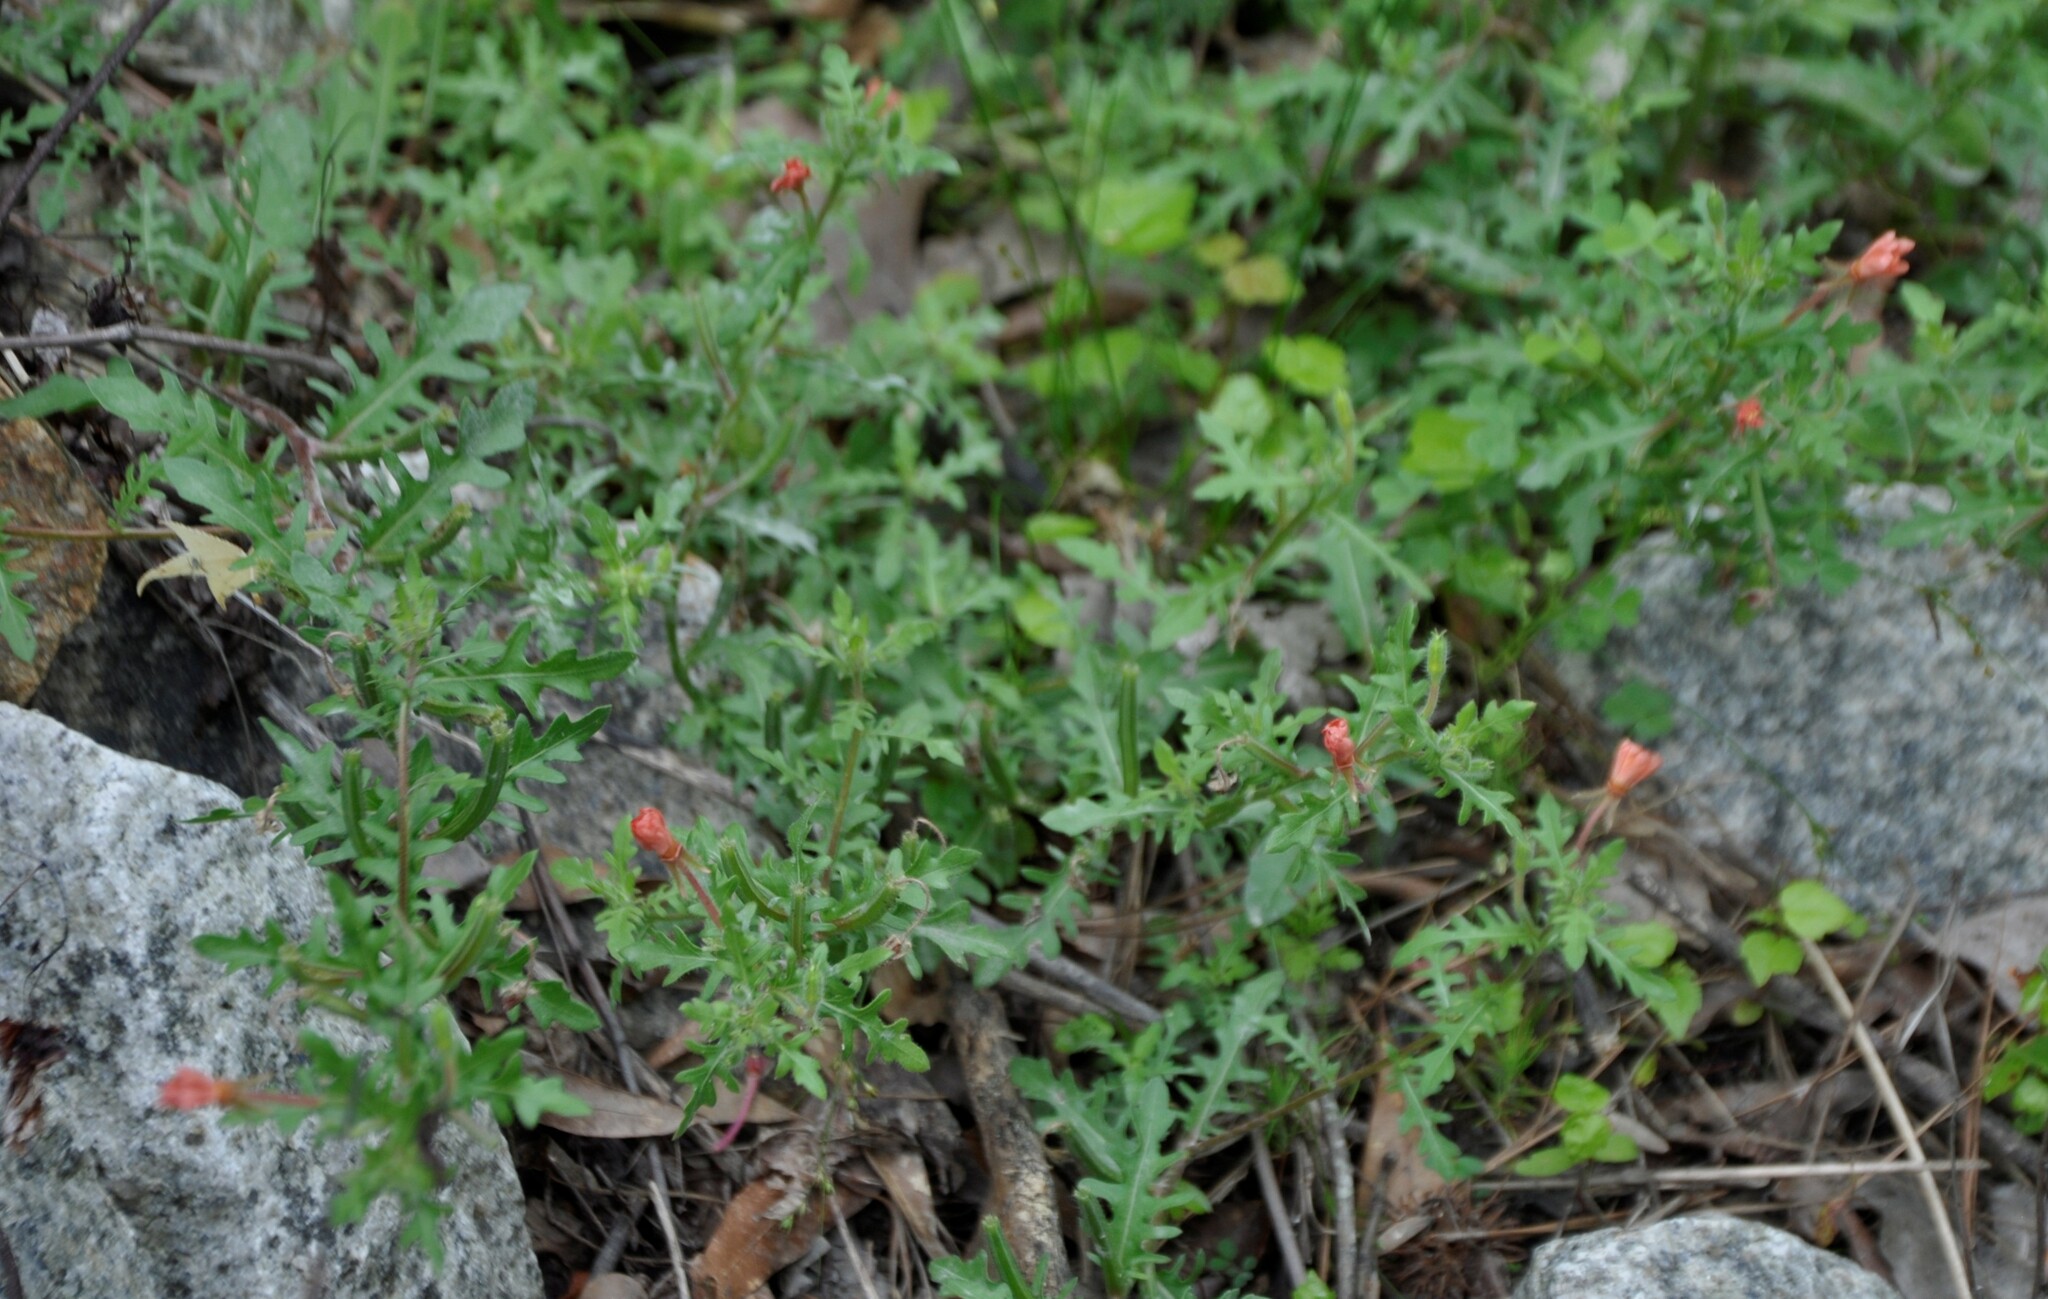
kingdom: Plantae
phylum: Tracheophyta
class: Magnoliopsida
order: Myrtales
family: Onagraceae
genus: Oenothera
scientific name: Oenothera laciniata
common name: Cut-leaved evening-primrose
